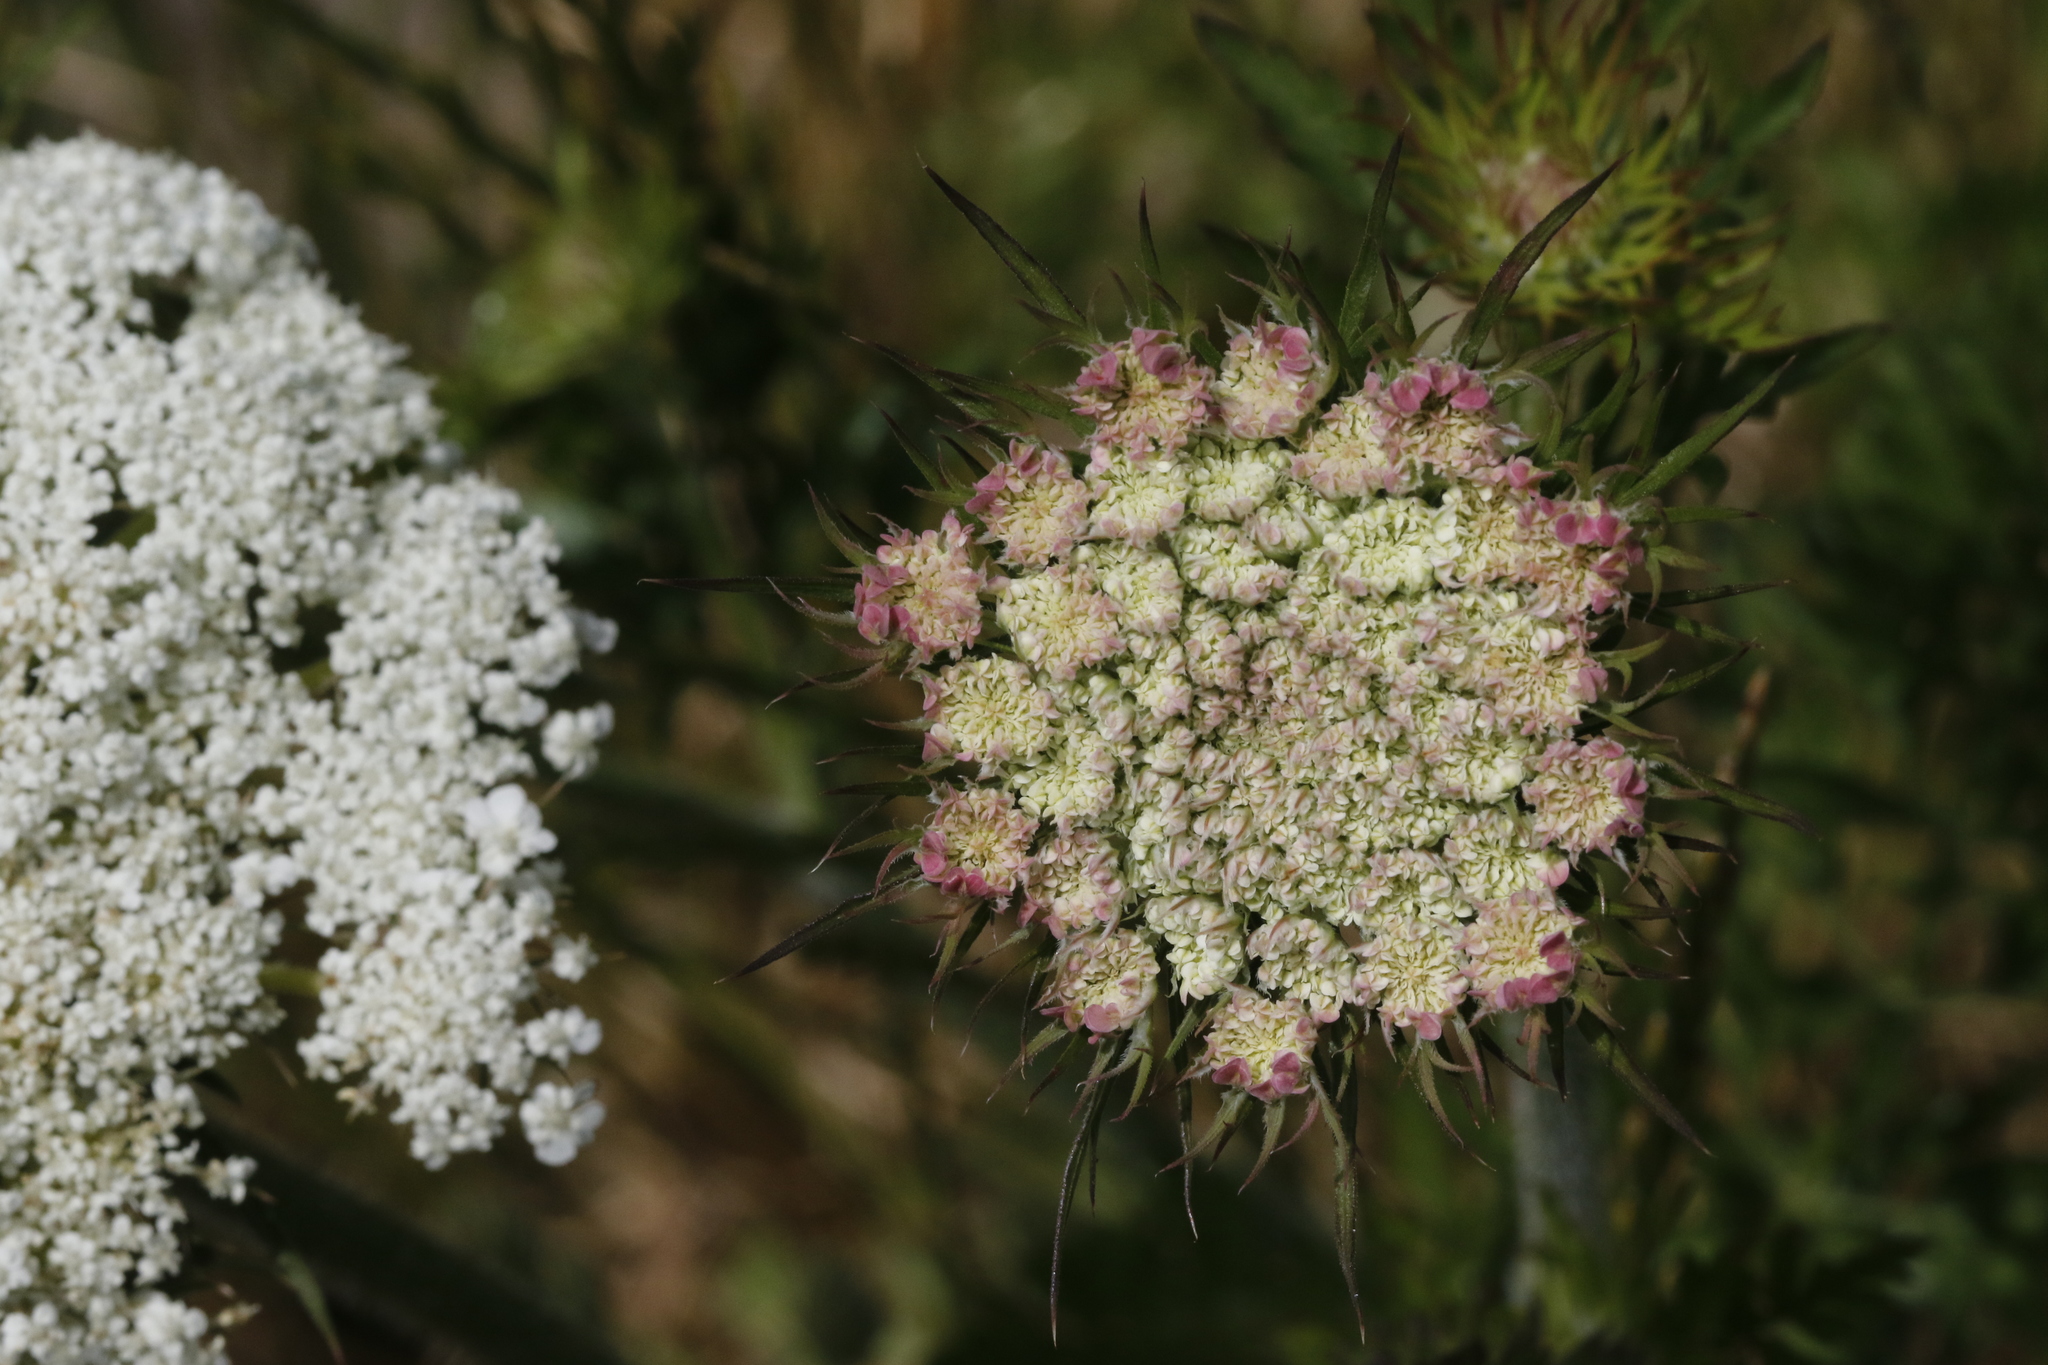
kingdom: Plantae
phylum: Tracheophyta
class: Magnoliopsida
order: Apiales
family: Apiaceae
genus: Daucus
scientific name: Daucus carota
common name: Wild carrot
